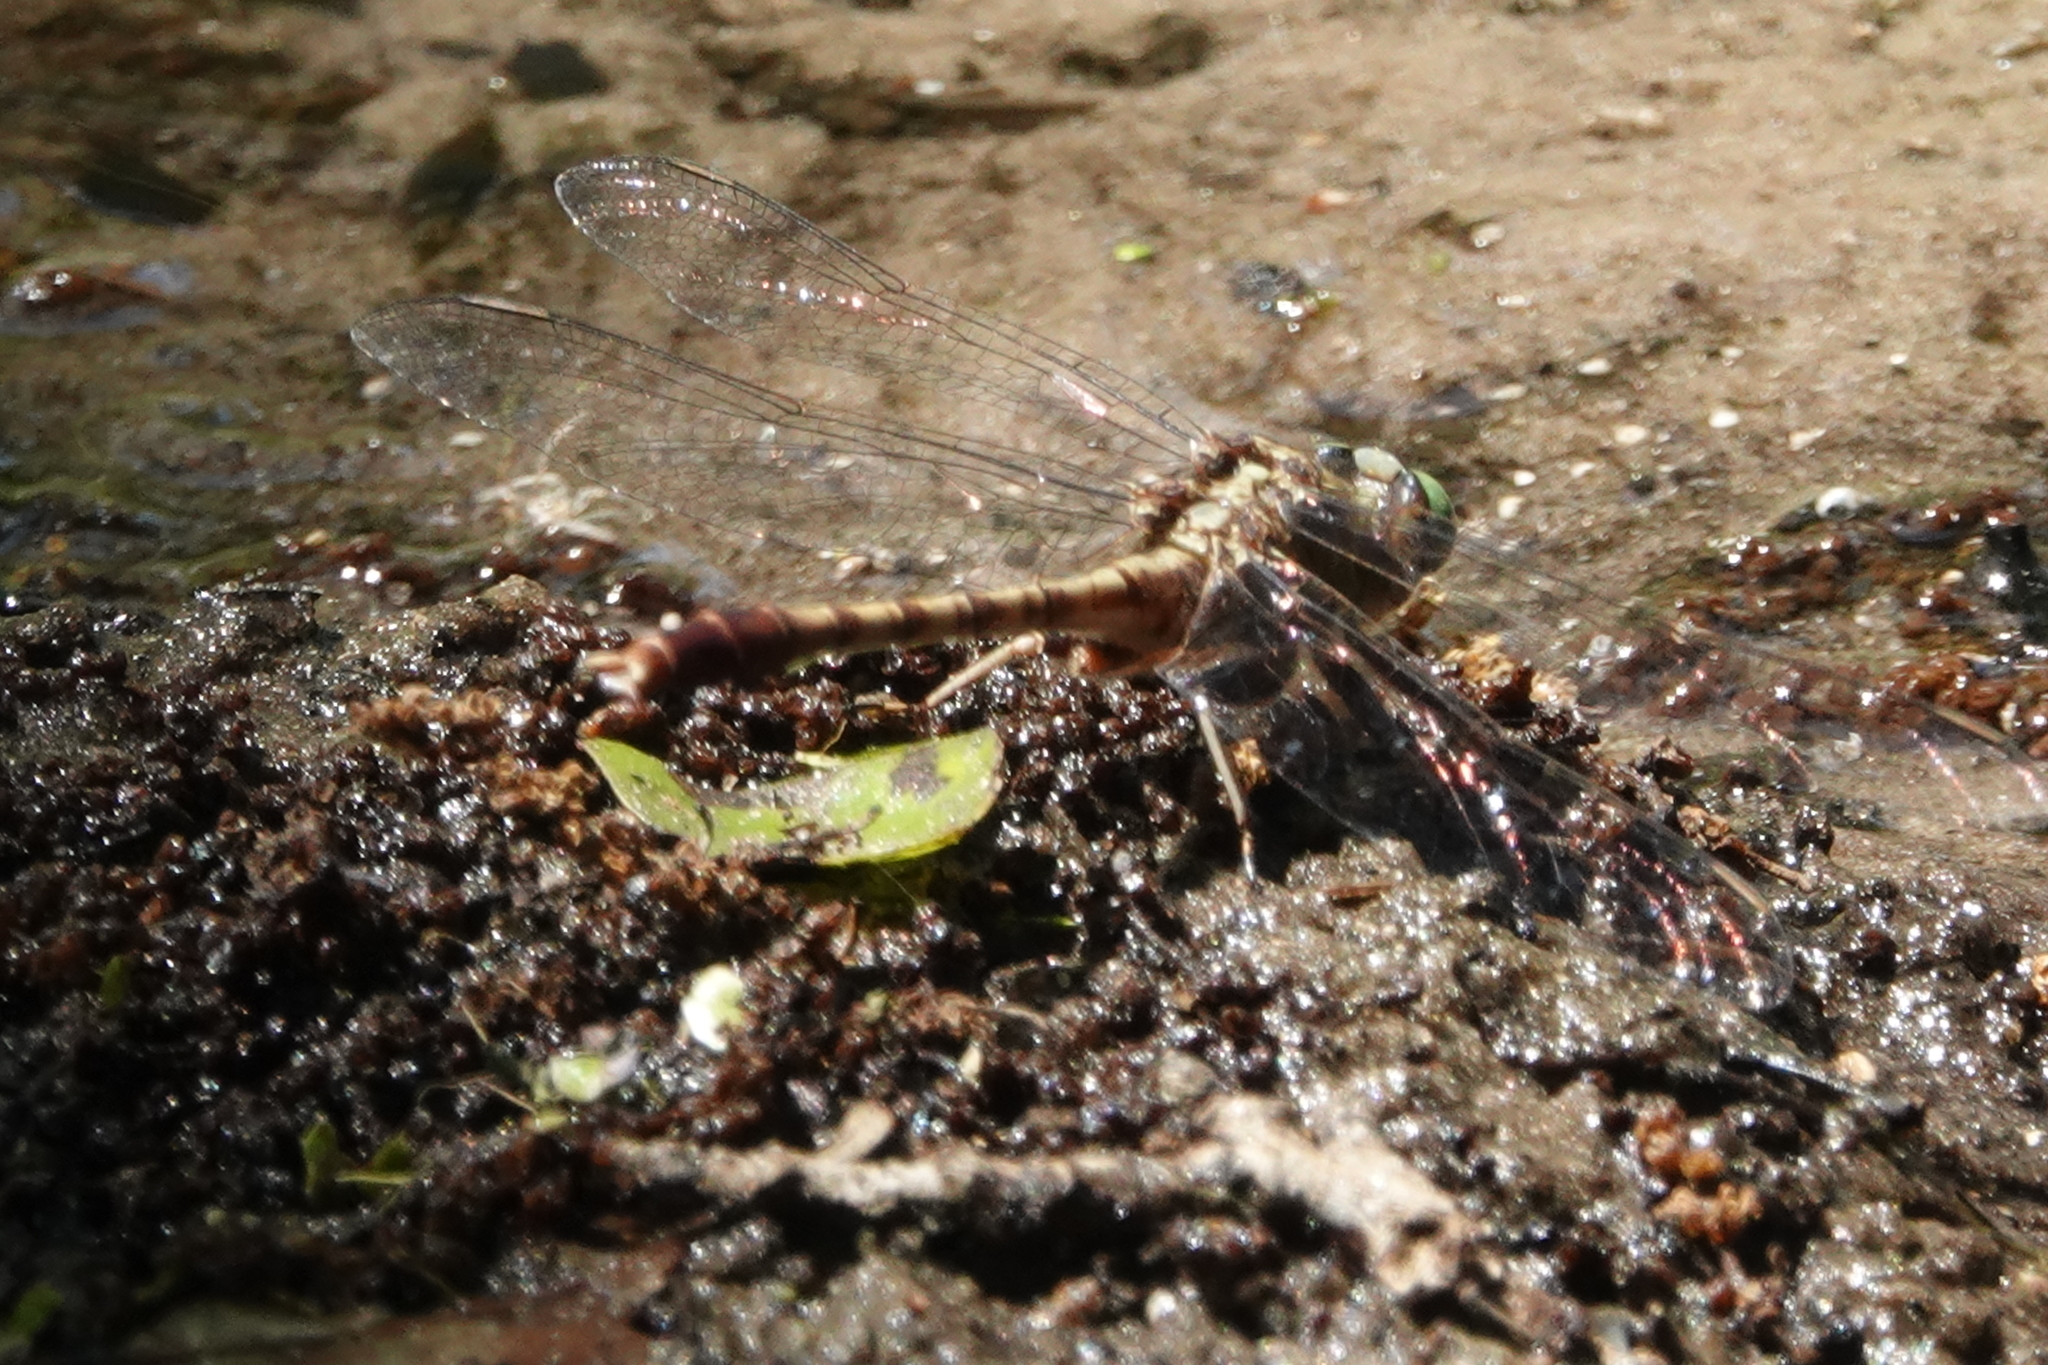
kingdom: Animalia
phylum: Arthropoda
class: Insecta
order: Odonata
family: Gomphidae
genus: Arigomphus
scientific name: Arigomphus pallidus
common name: Gray-green clubtail
